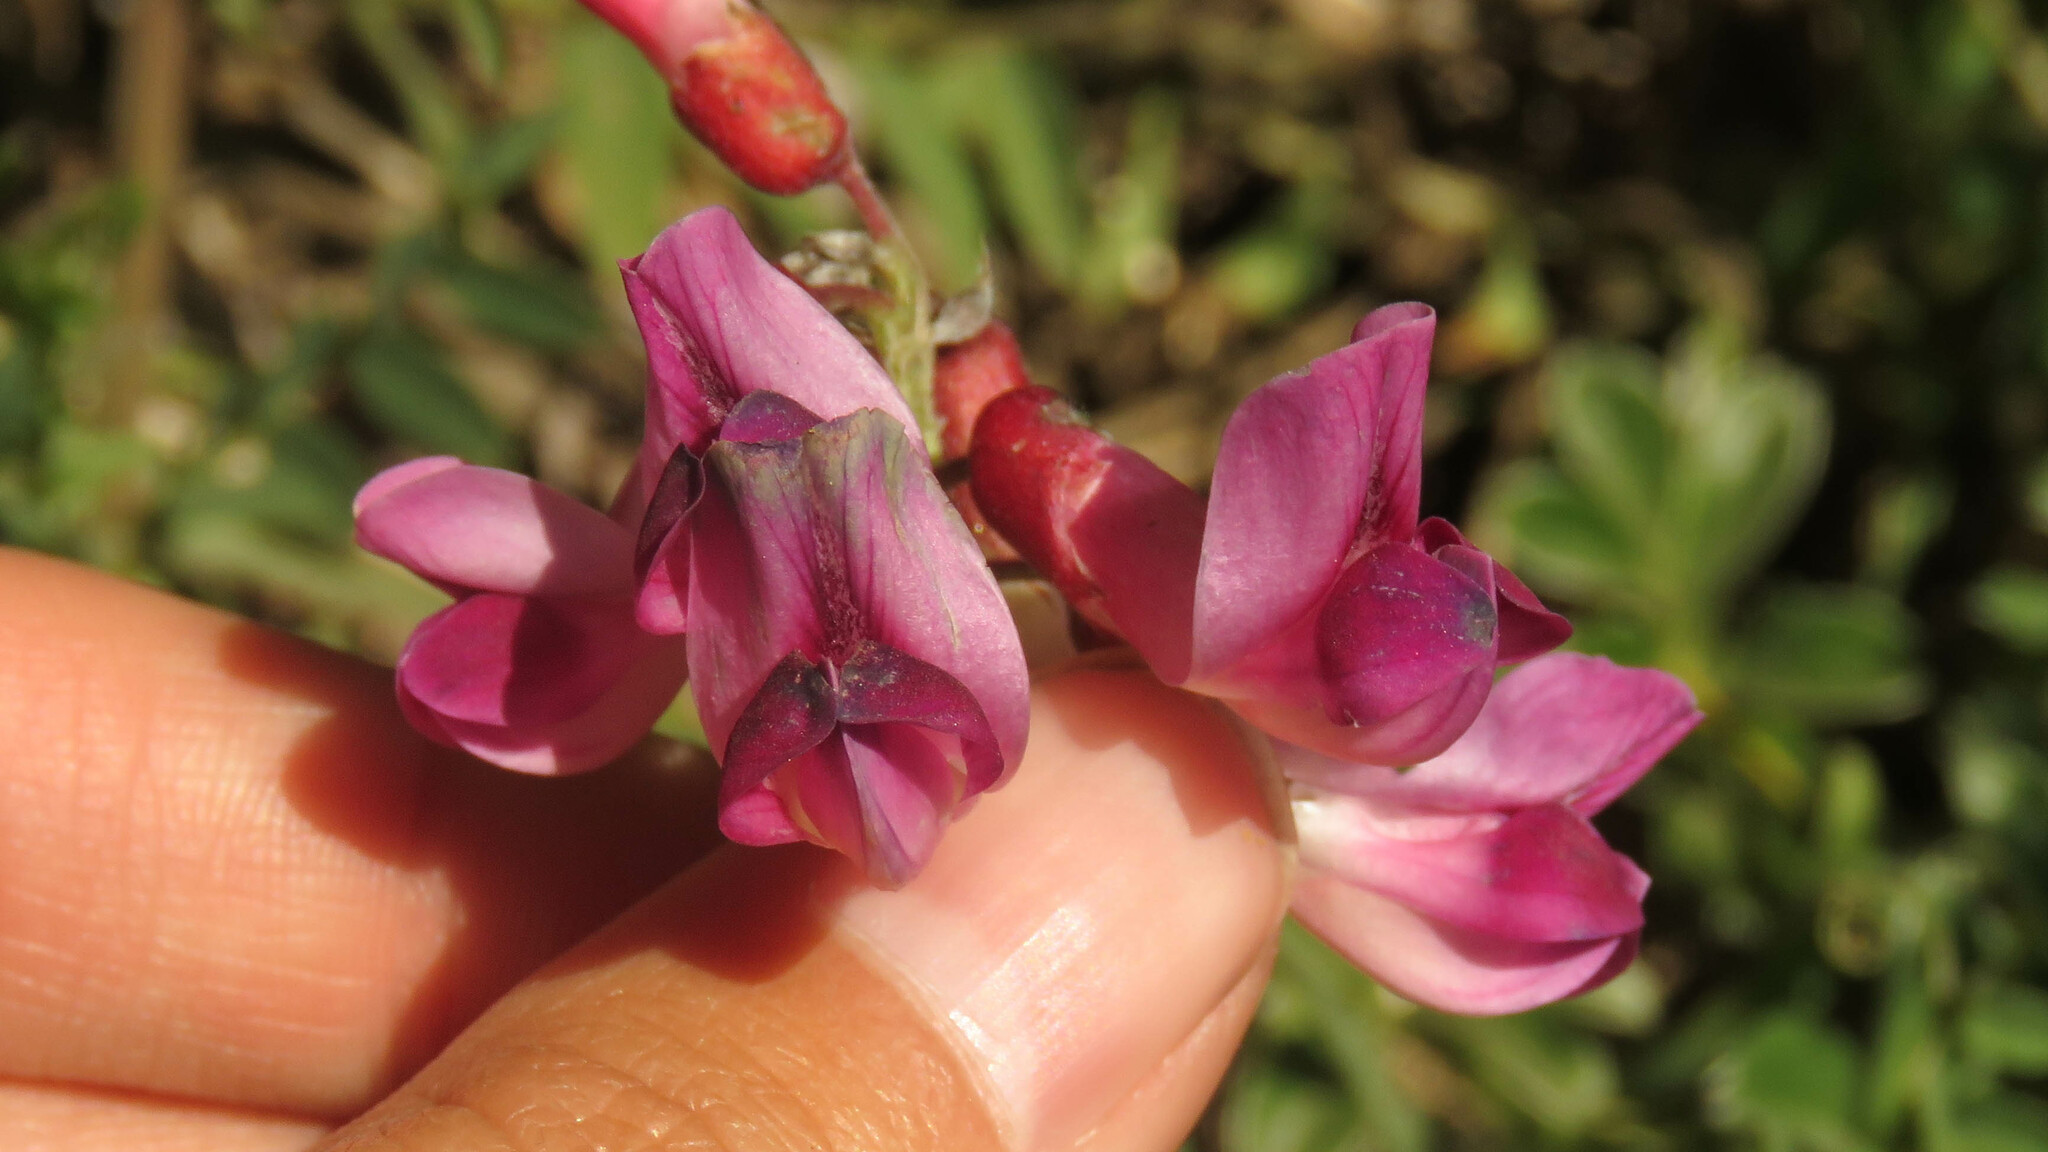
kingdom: Plantae
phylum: Tracheophyta
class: Magnoliopsida
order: Fabales
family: Fabaceae
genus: Vicia
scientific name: Vicia nigricans
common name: Black vetch
